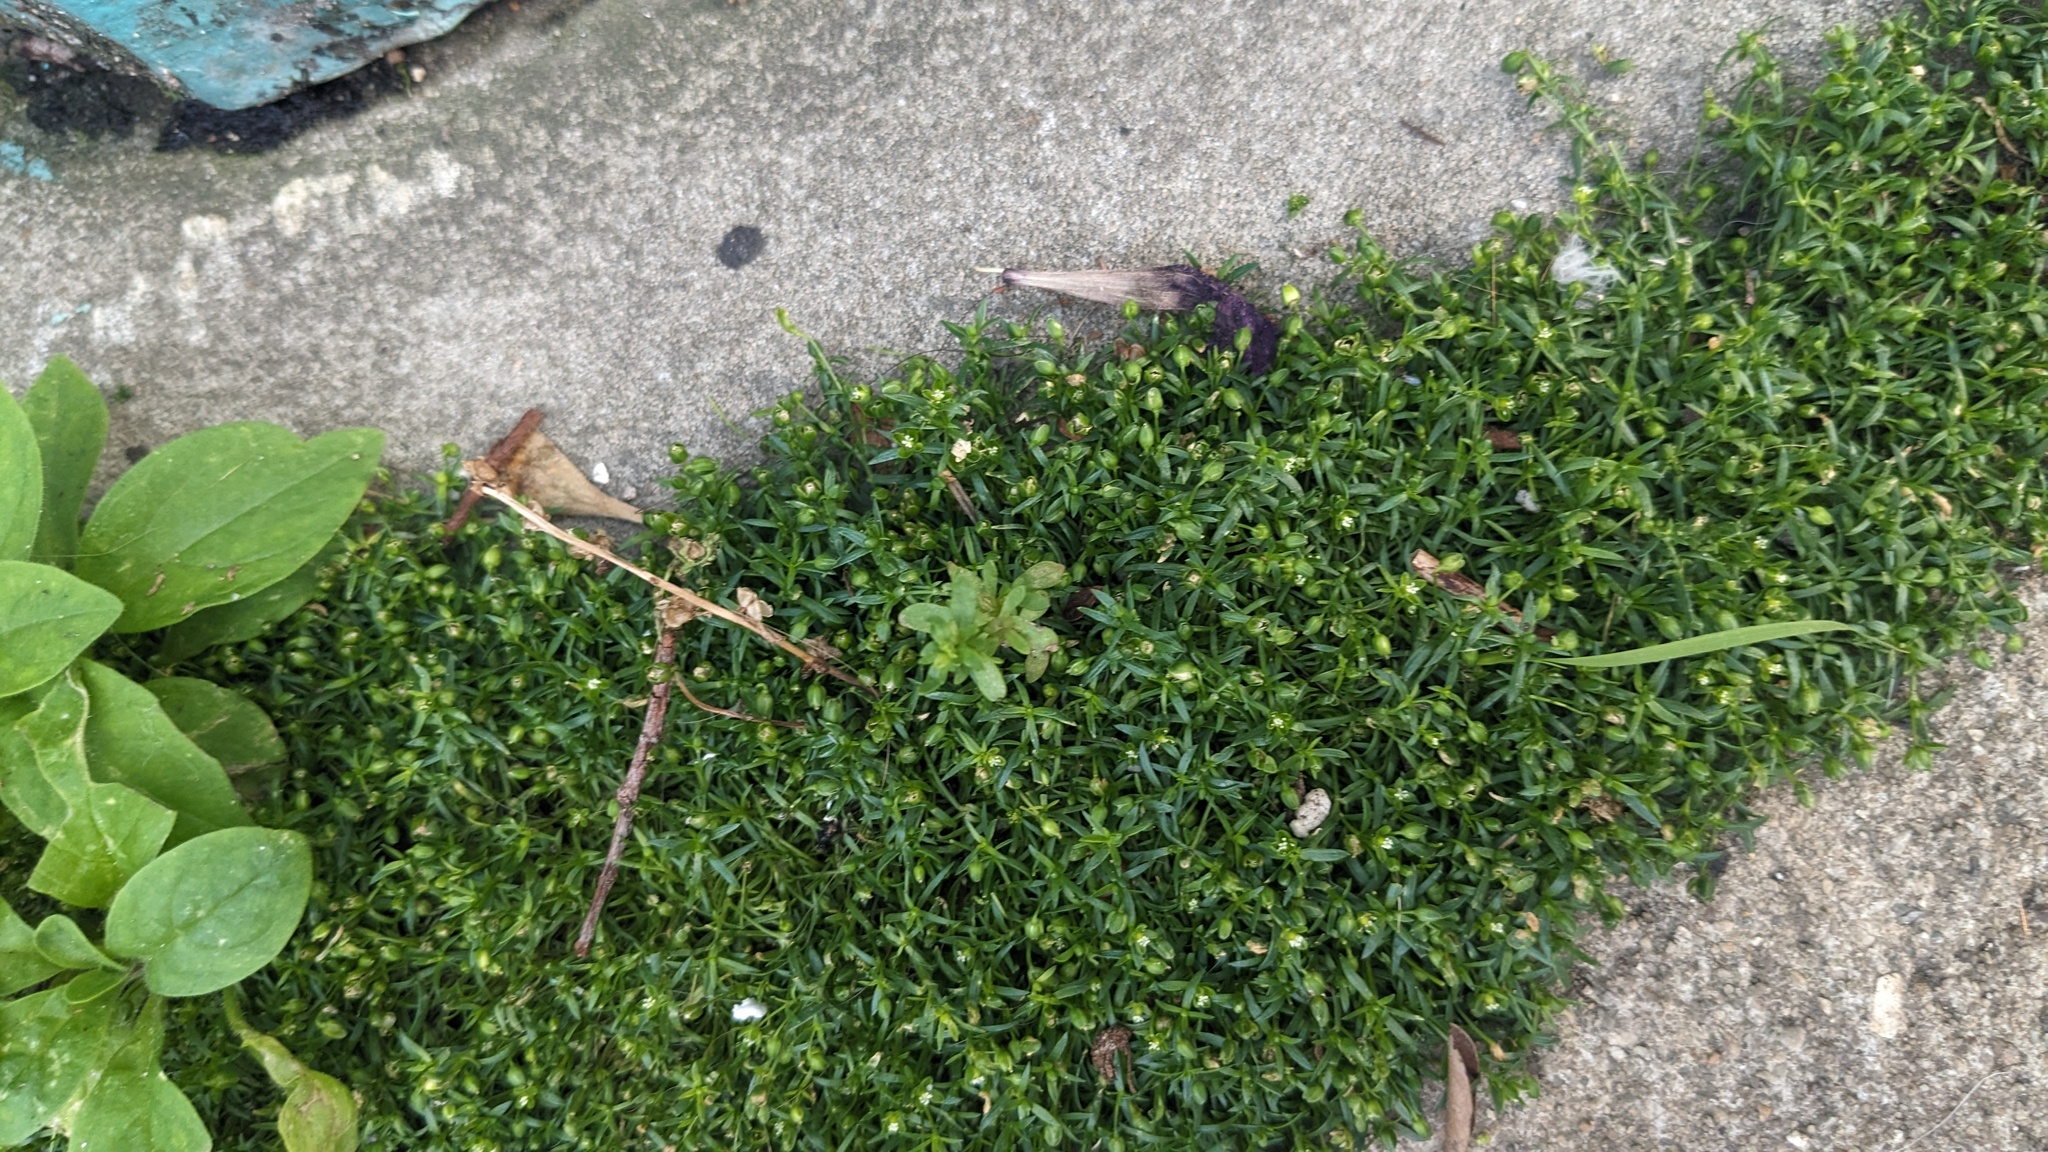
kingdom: Plantae
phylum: Tracheophyta
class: Magnoliopsida
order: Caryophyllales
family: Caryophyllaceae
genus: Sagina
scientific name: Sagina procumbens
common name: Procumbent pearlwort
